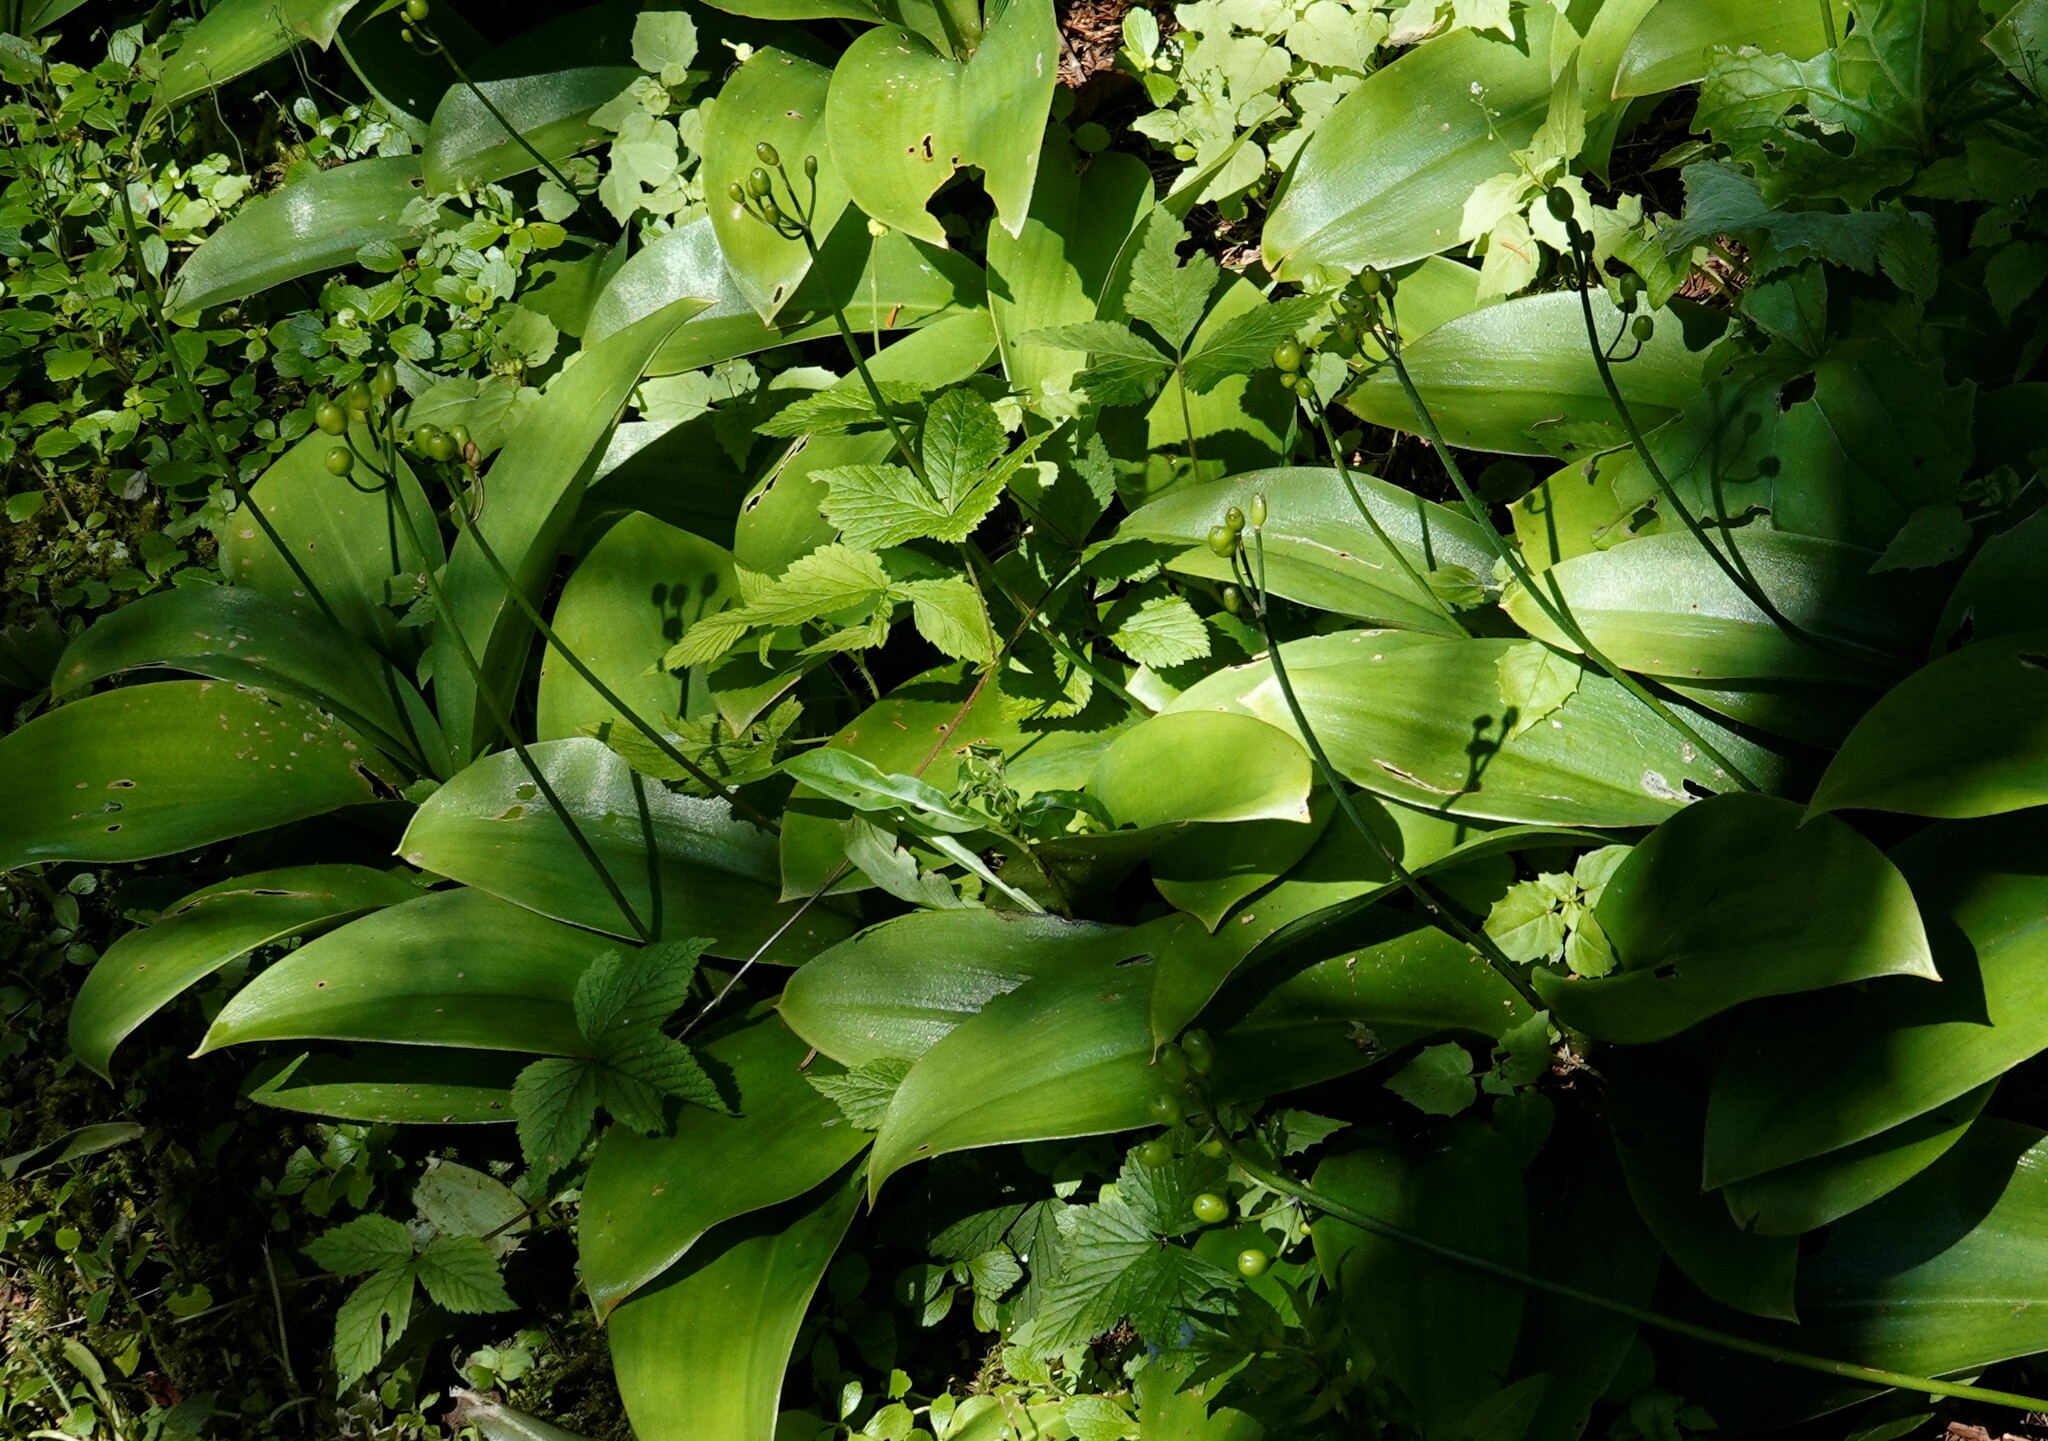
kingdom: Plantae
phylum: Tracheophyta
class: Liliopsida
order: Liliales
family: Liliaceae
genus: Clintonia
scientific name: Clintonia borealis
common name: Yellow clintonia
